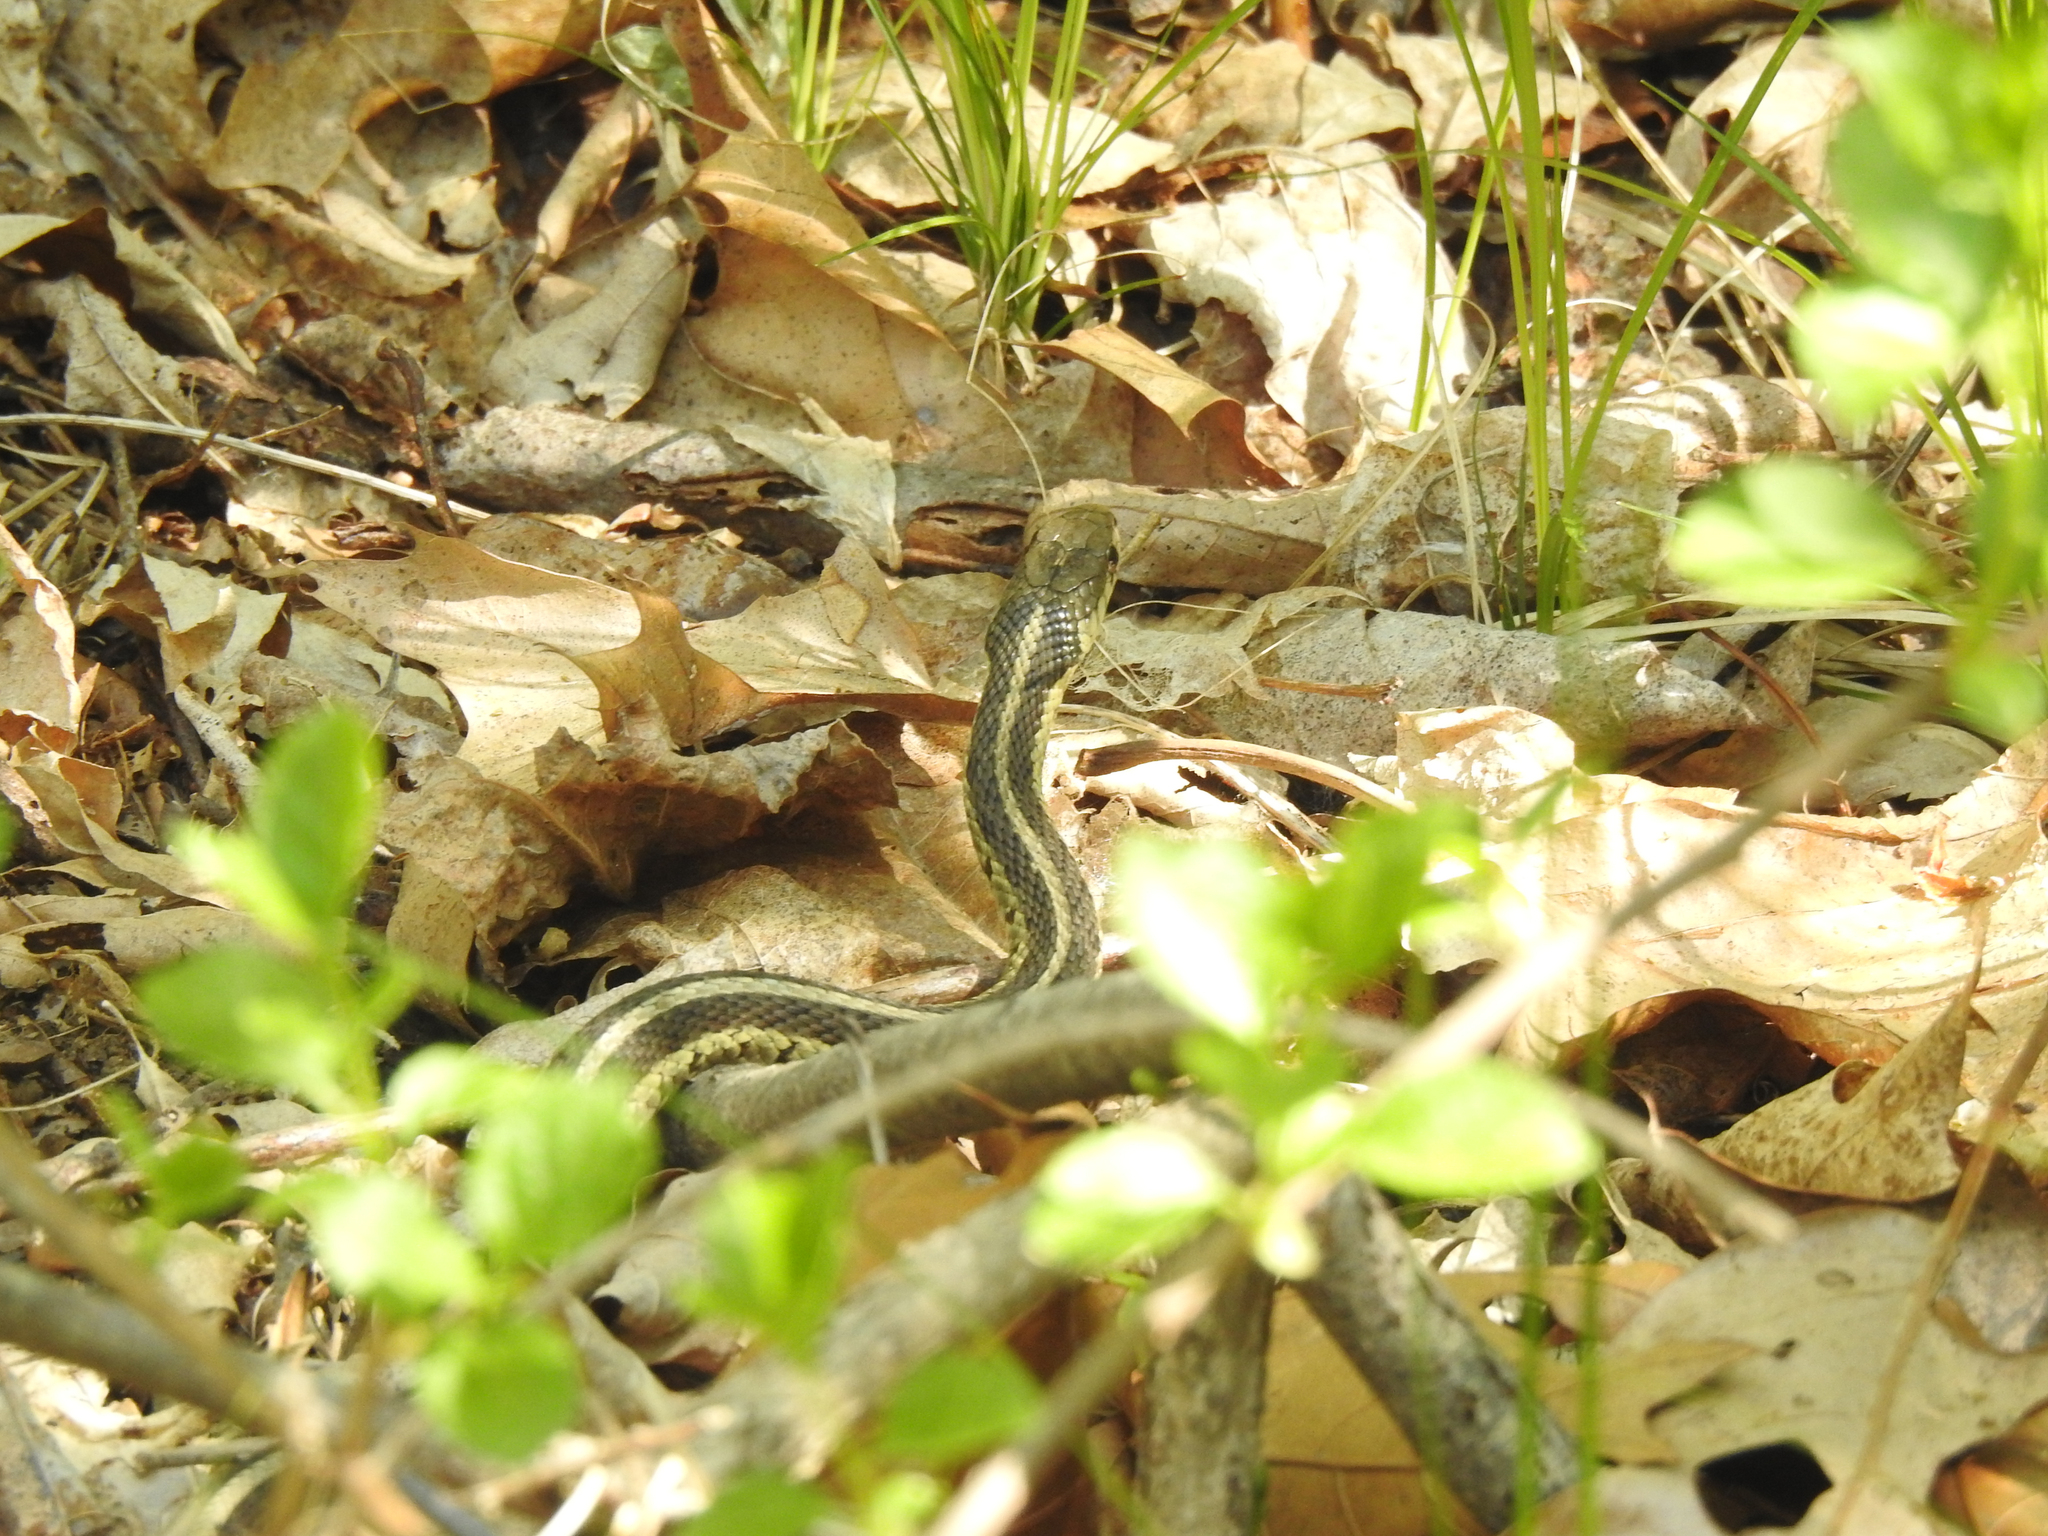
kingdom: Animalia
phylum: Chordata
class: Squamata
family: Colubridae
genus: Thamnophis
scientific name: Thamnophis sirtalis
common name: Common garter snake
